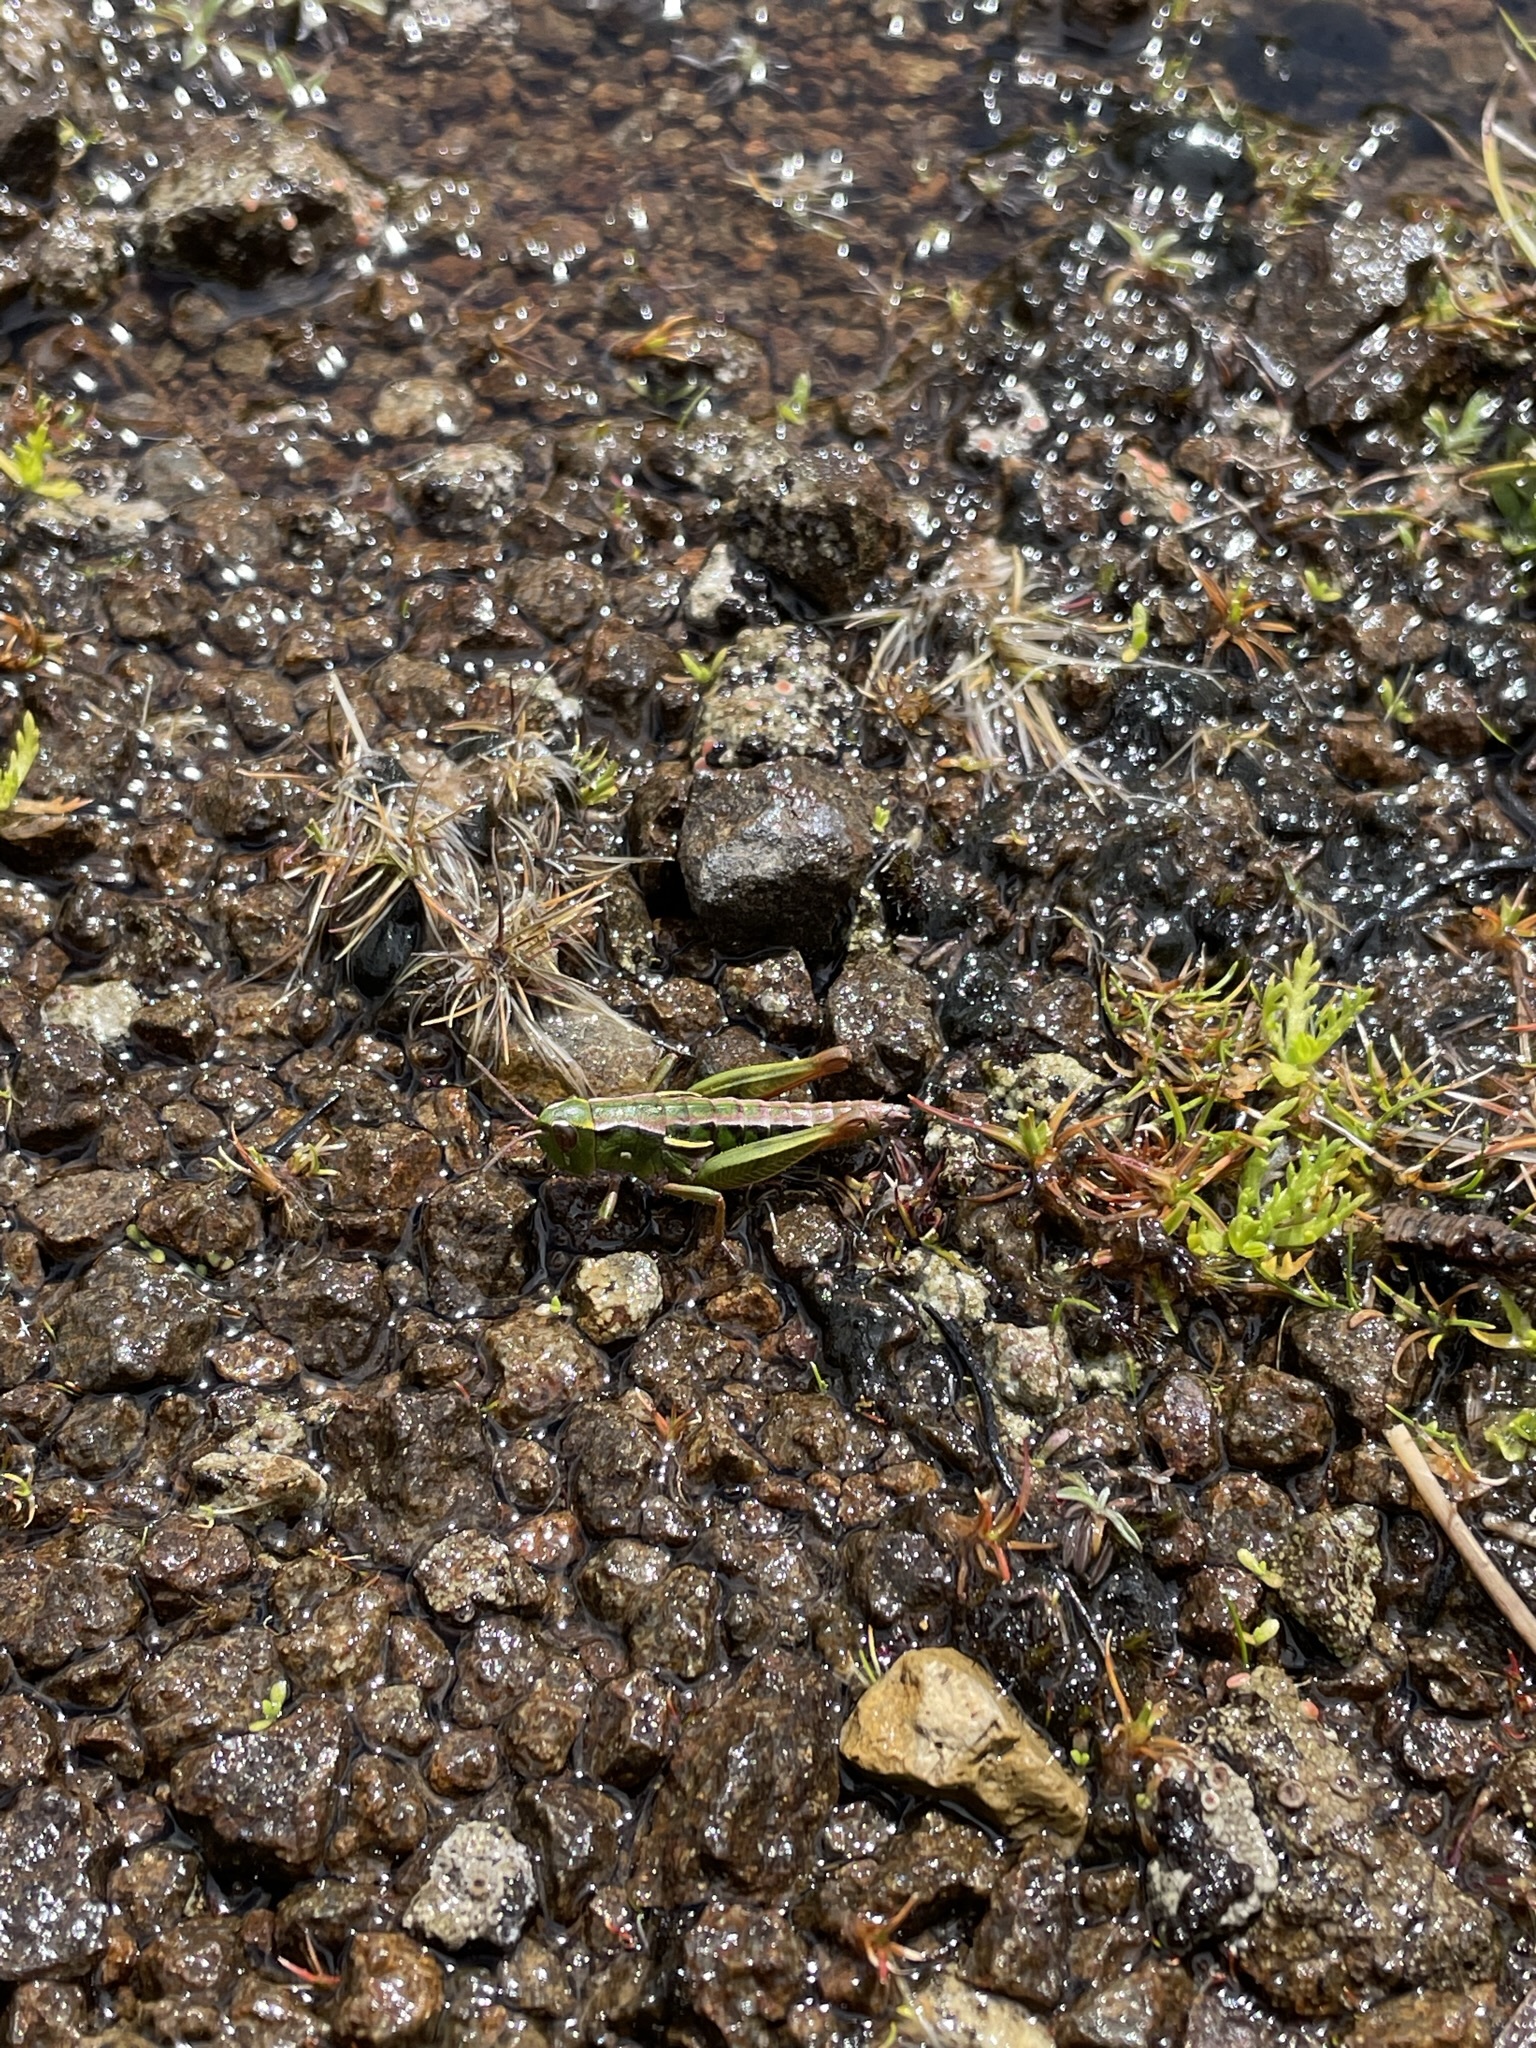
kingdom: Animalia
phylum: Arthropoda
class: Insecta
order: Orthoptera
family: Acrididae
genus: Russalpia
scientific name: Russalpia albertisi
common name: Tassie hopper
